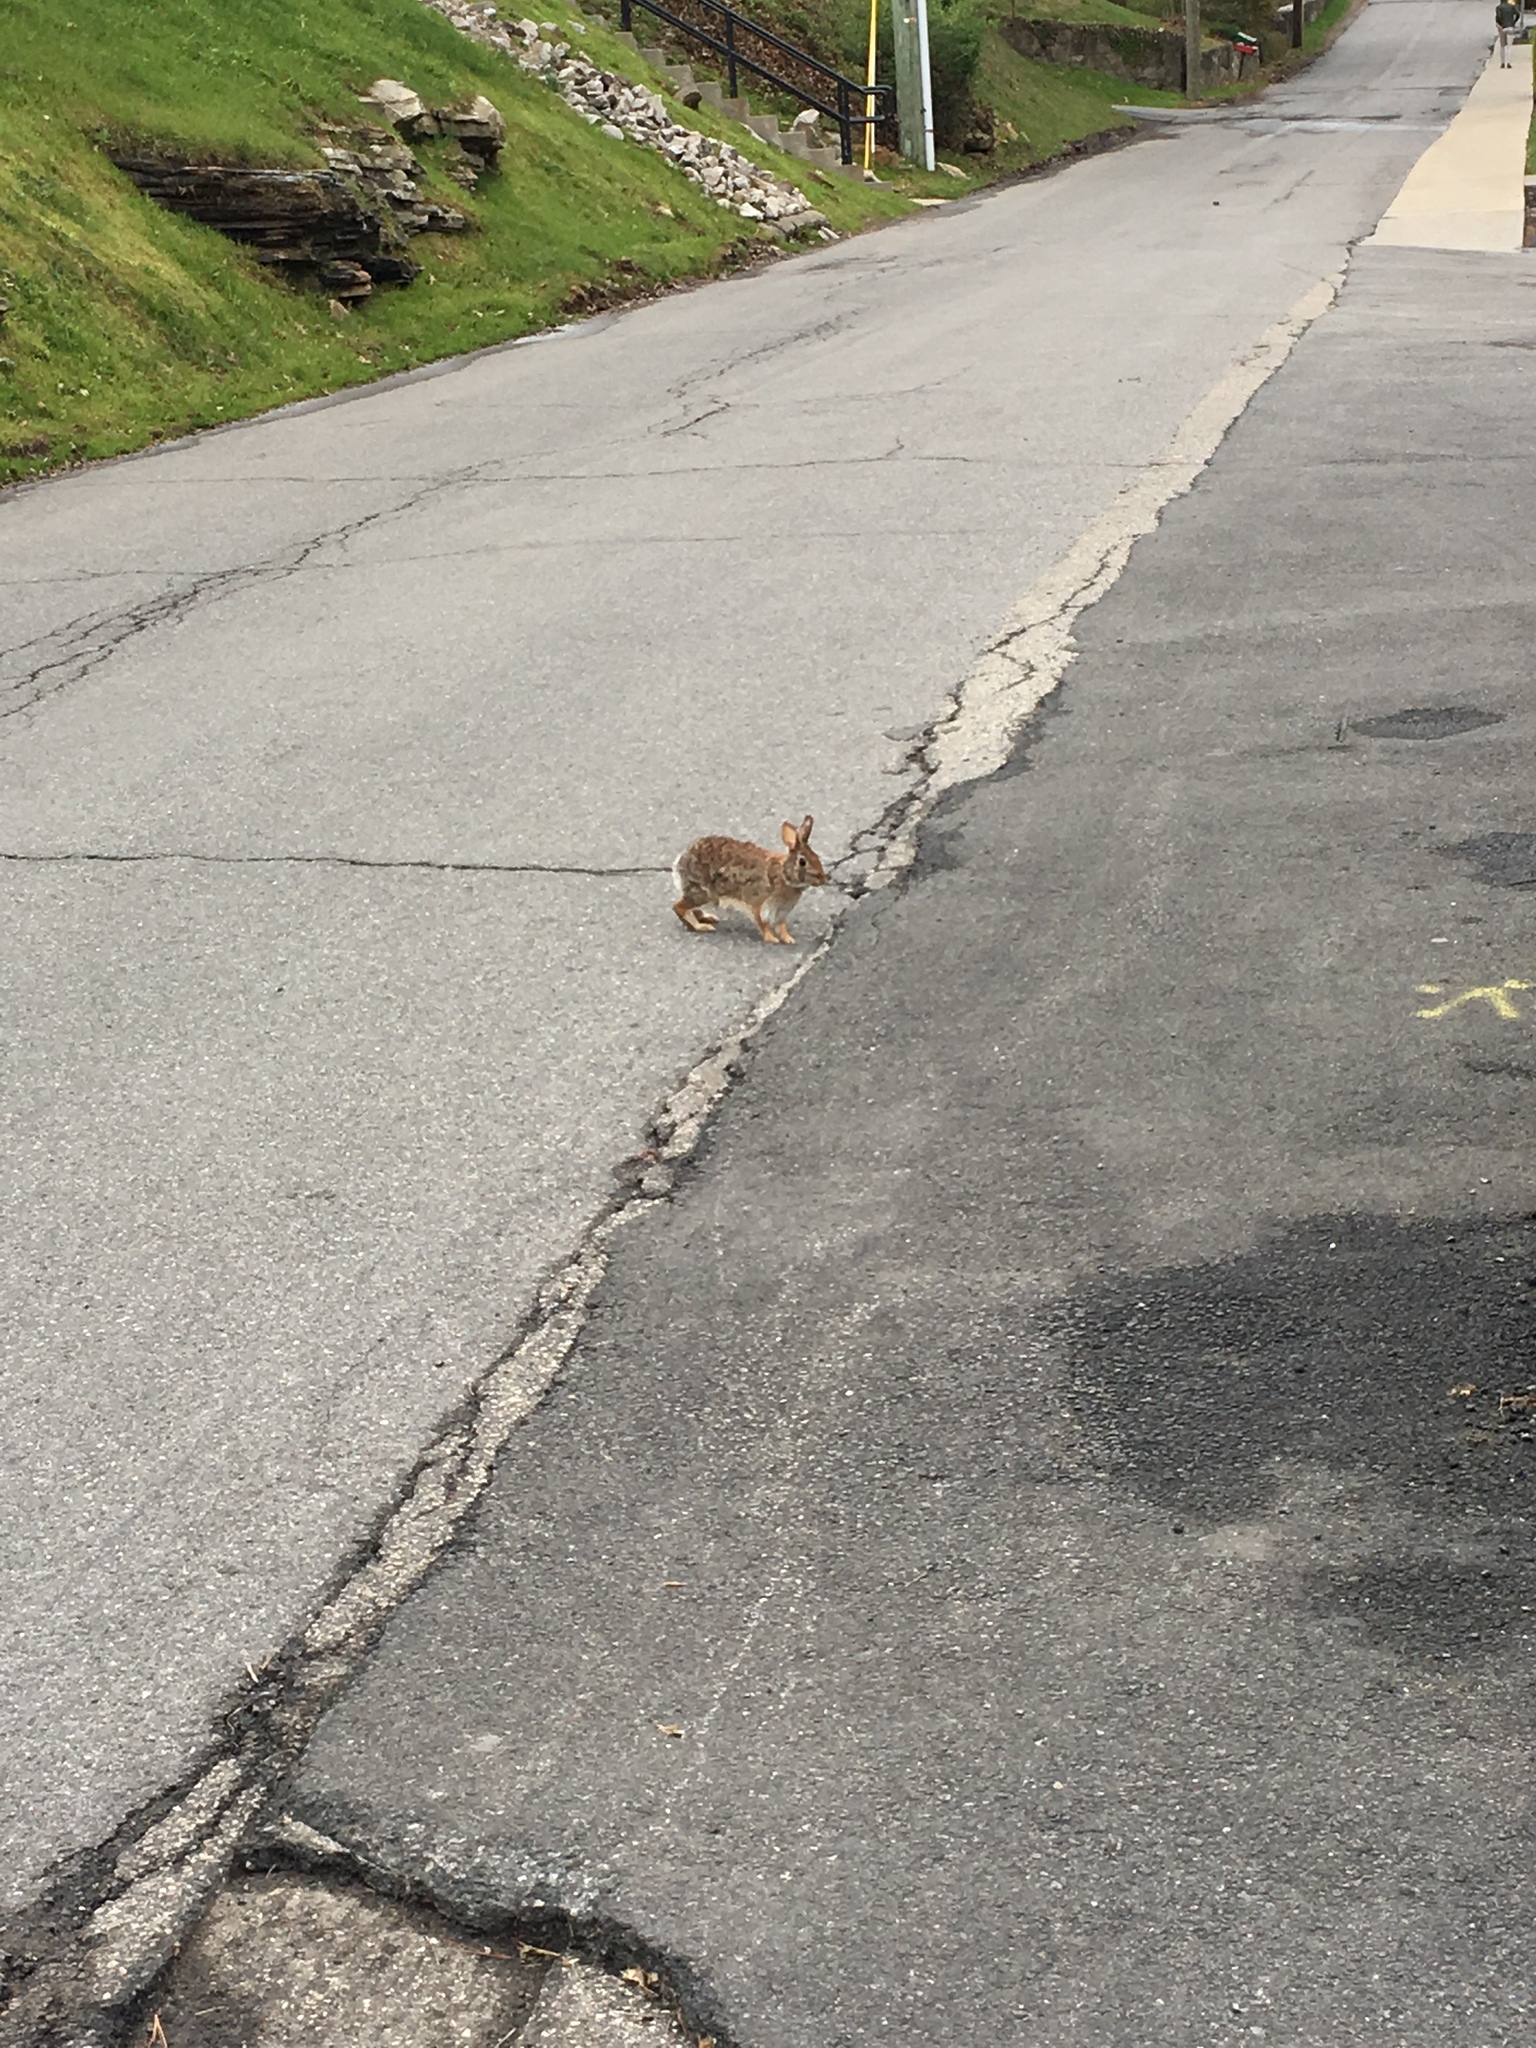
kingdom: Animalia
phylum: Chordata
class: Mammalia
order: Lagomorpha
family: Leporidae
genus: Sylvilagus
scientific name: Sylvilagus floridanus
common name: Eastern cottontail
